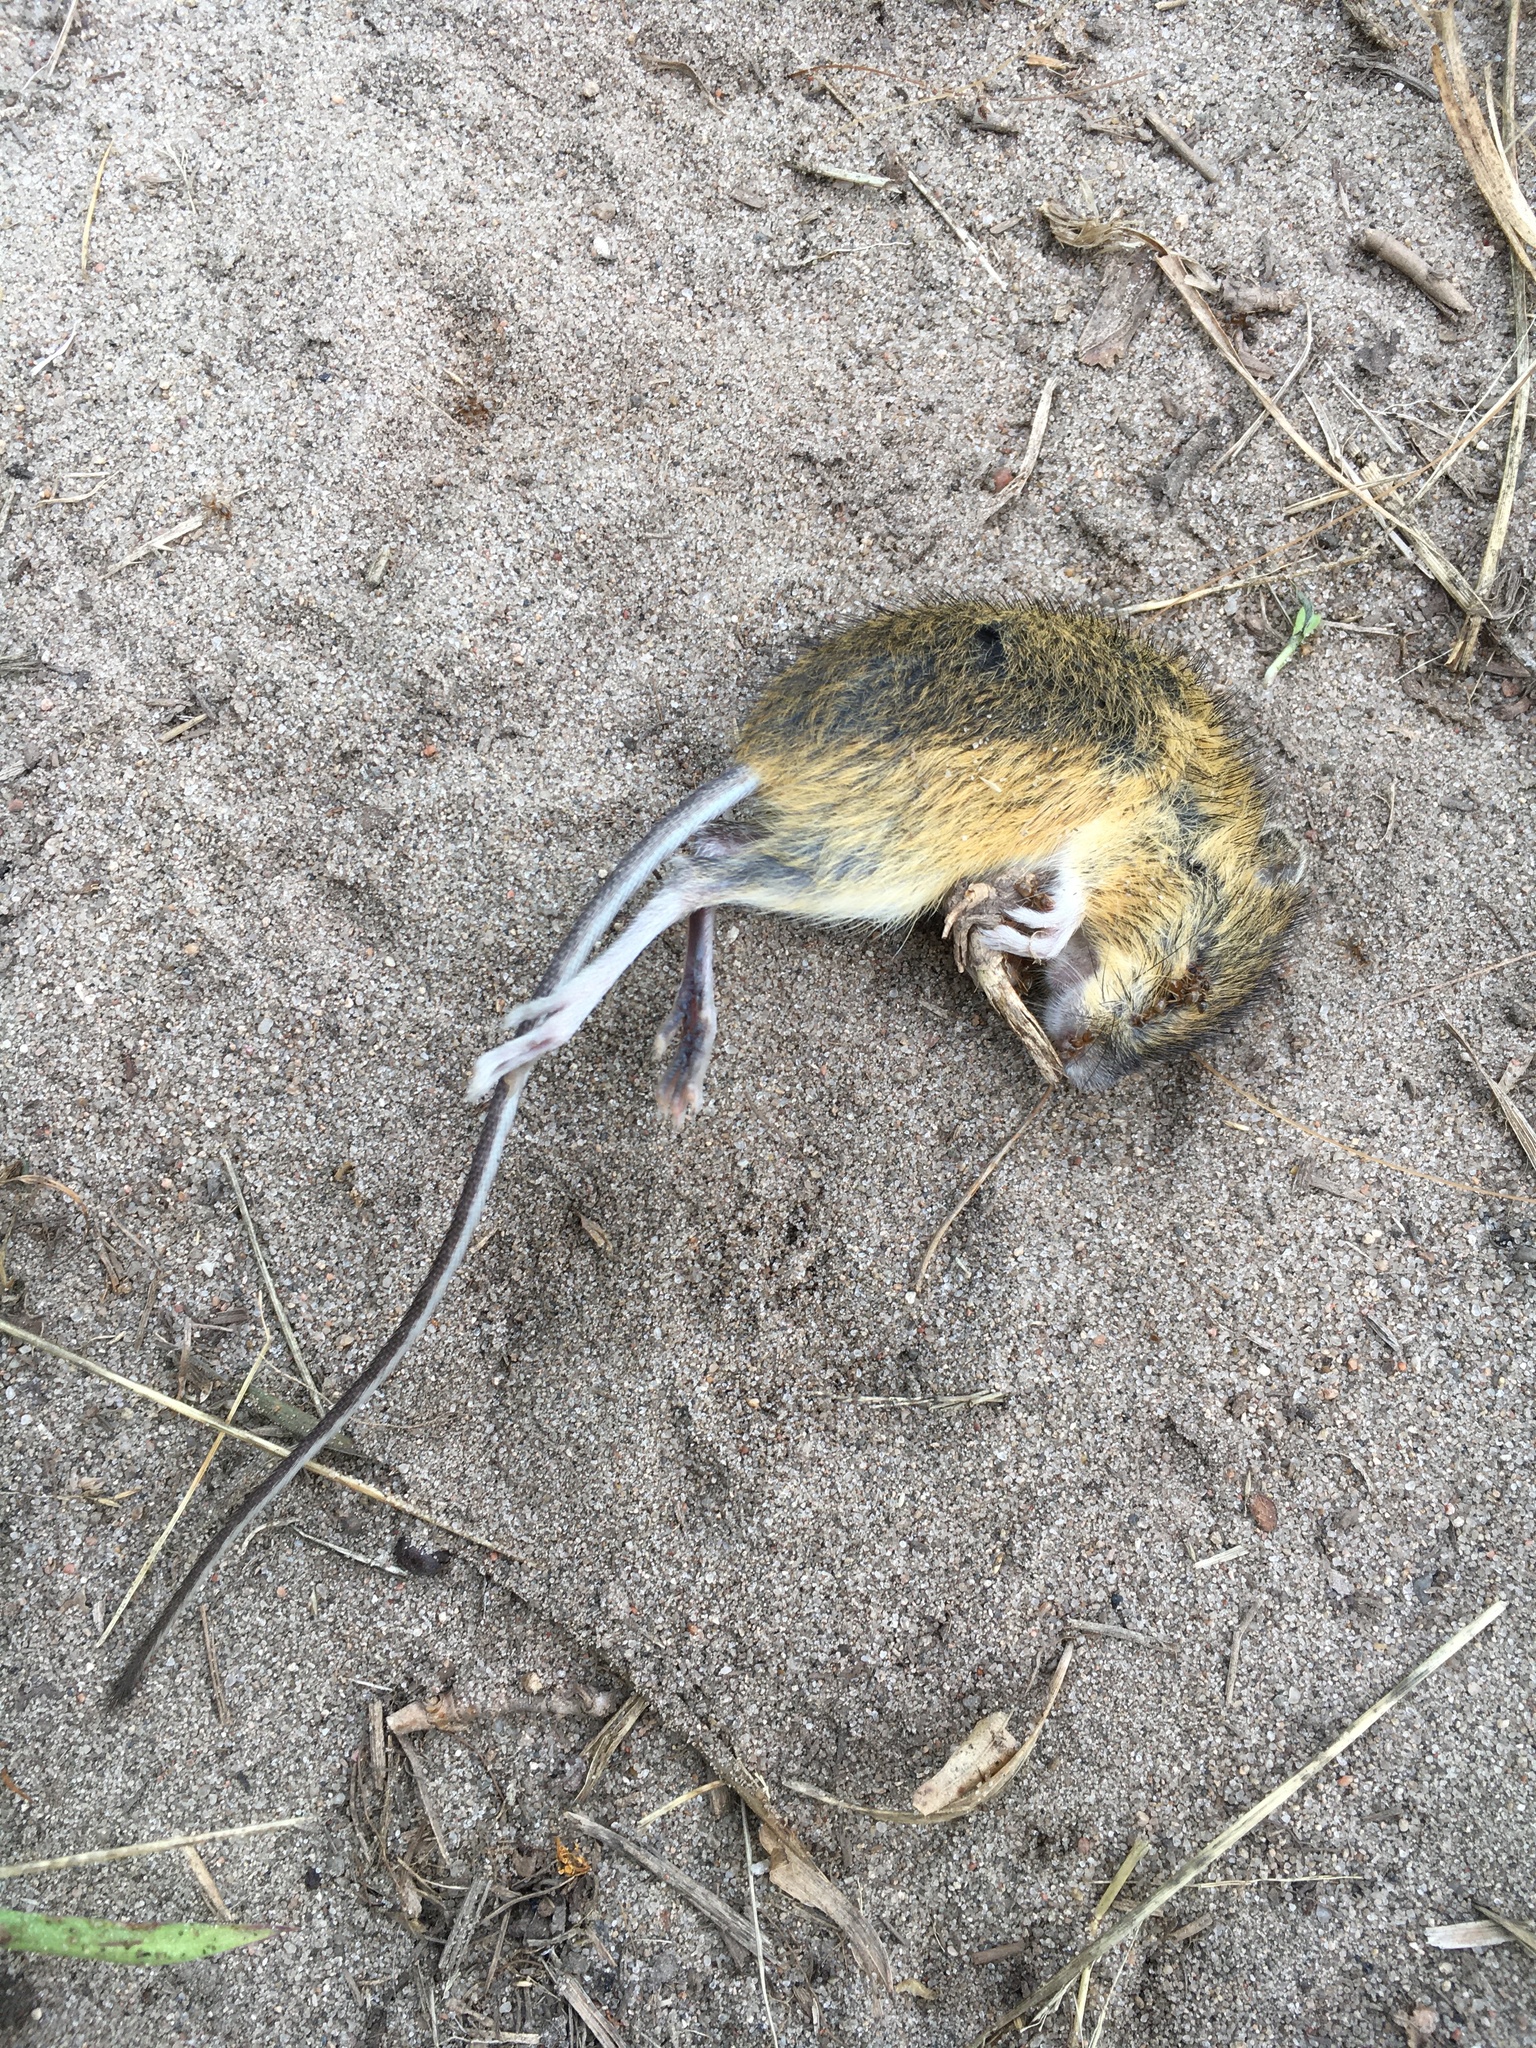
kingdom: Animalia
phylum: Chordata
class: Mammalia
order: Rodentia
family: Dipodidae
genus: Zapus
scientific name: Zapus hudsonius
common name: Meadow jumping mouse
